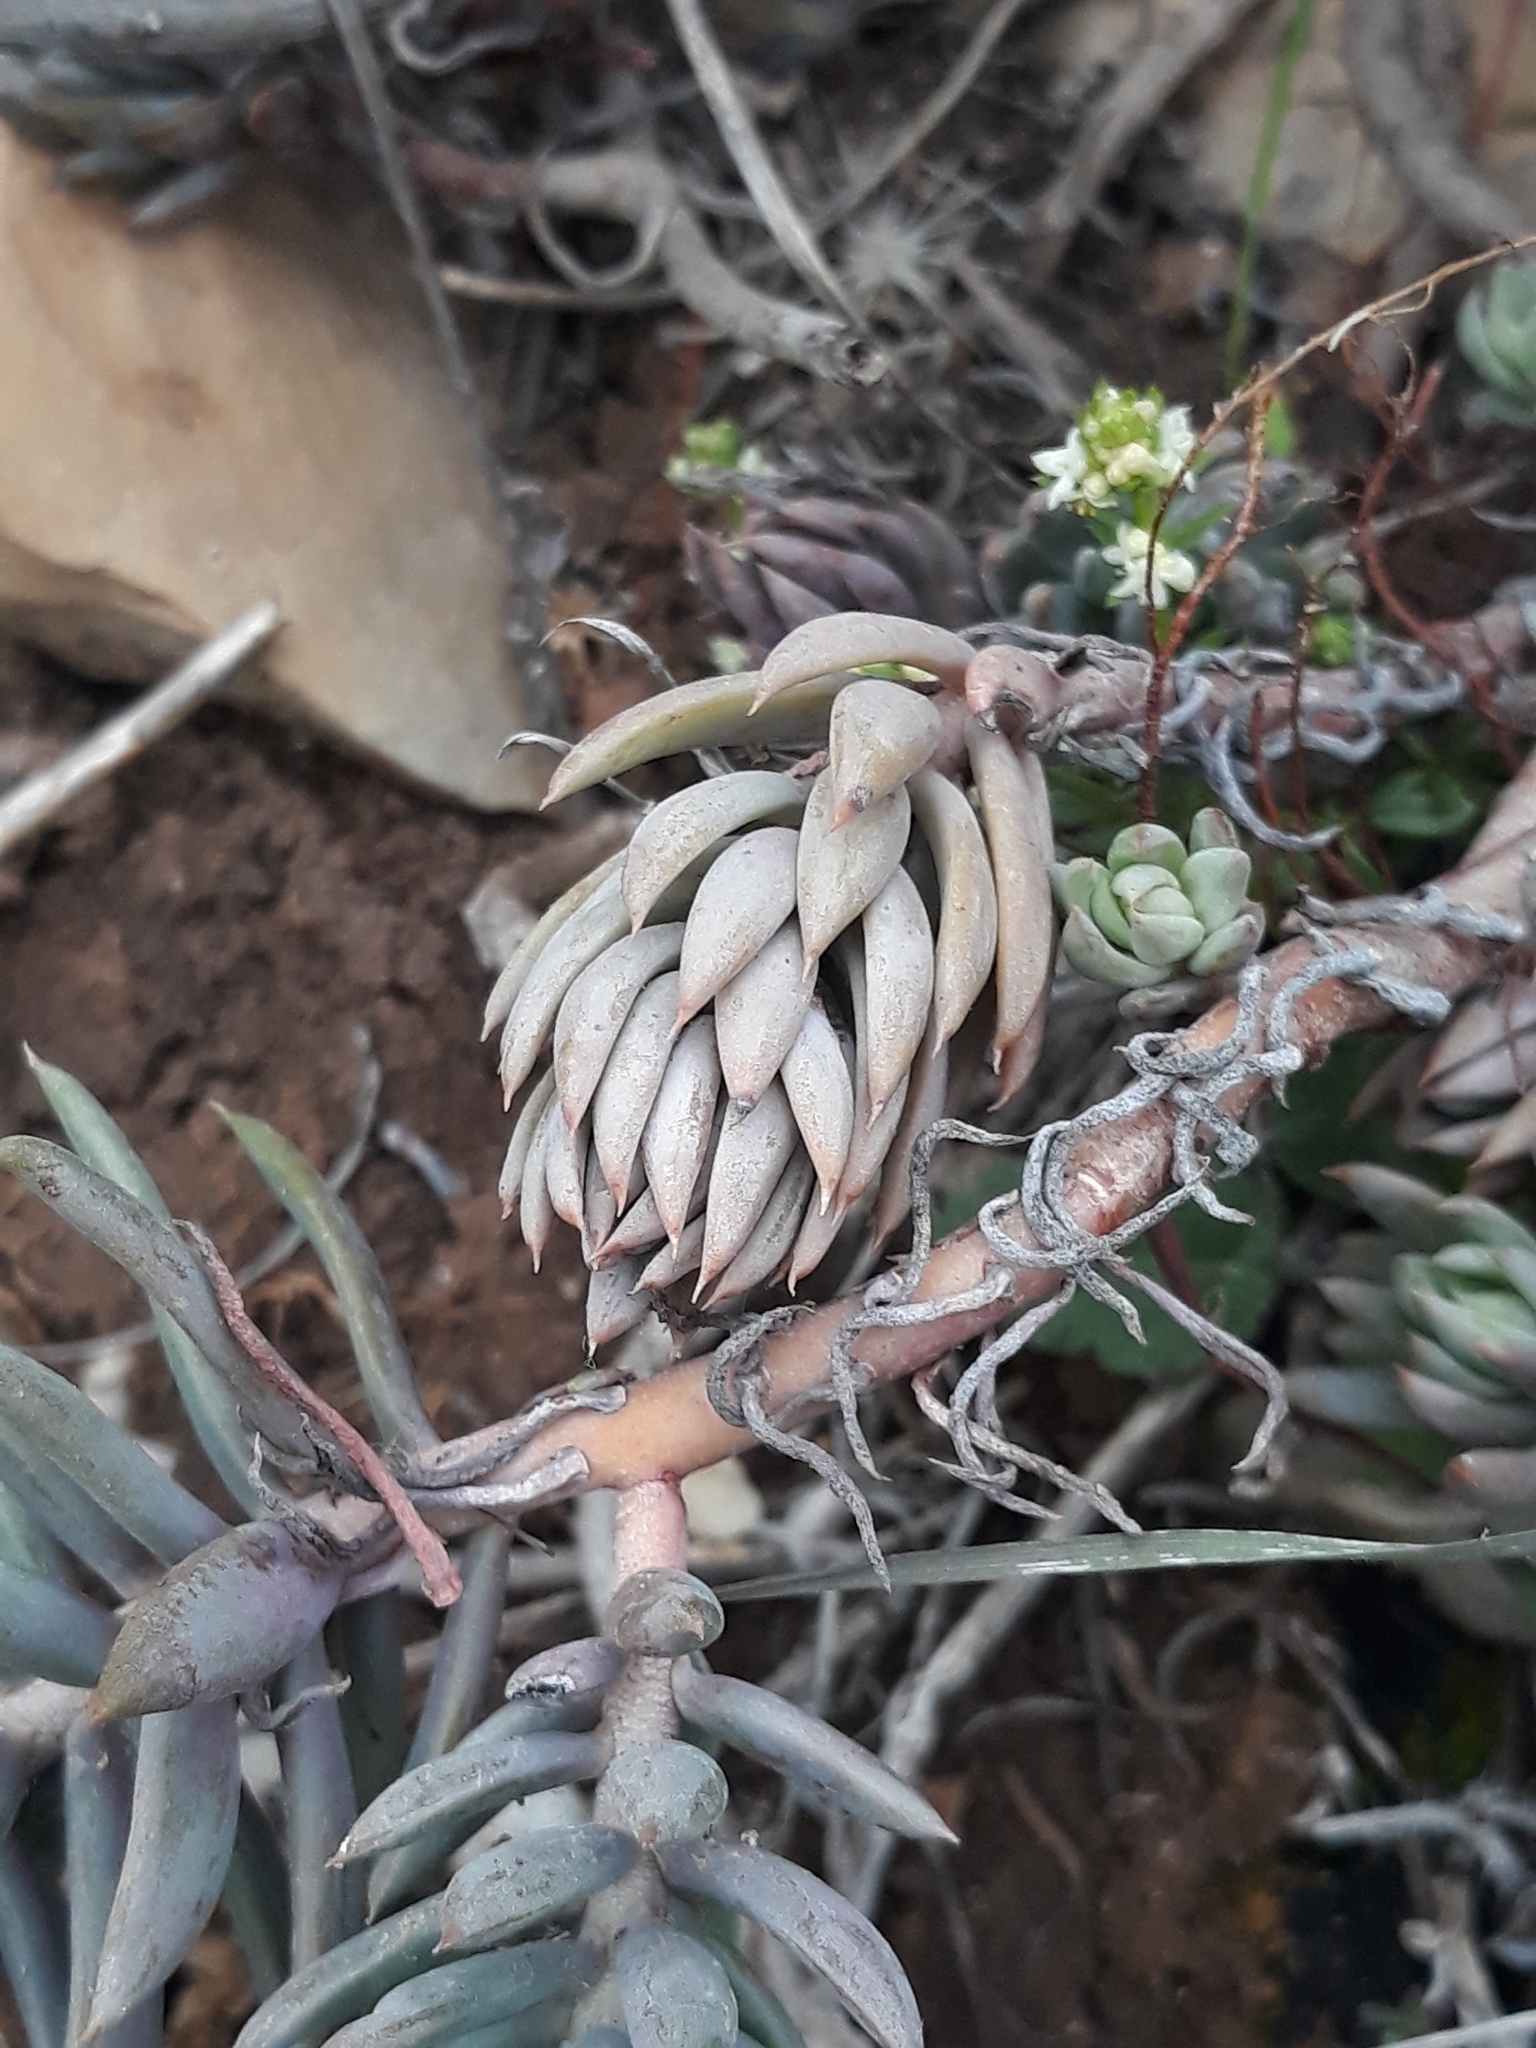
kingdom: Plantae
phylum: Tracheophyta
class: Magnoliopsida
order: Saxifragales
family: Crassulaceae
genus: Petrosedum
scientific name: Petrosedum sediforme
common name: Pale stonecrop
